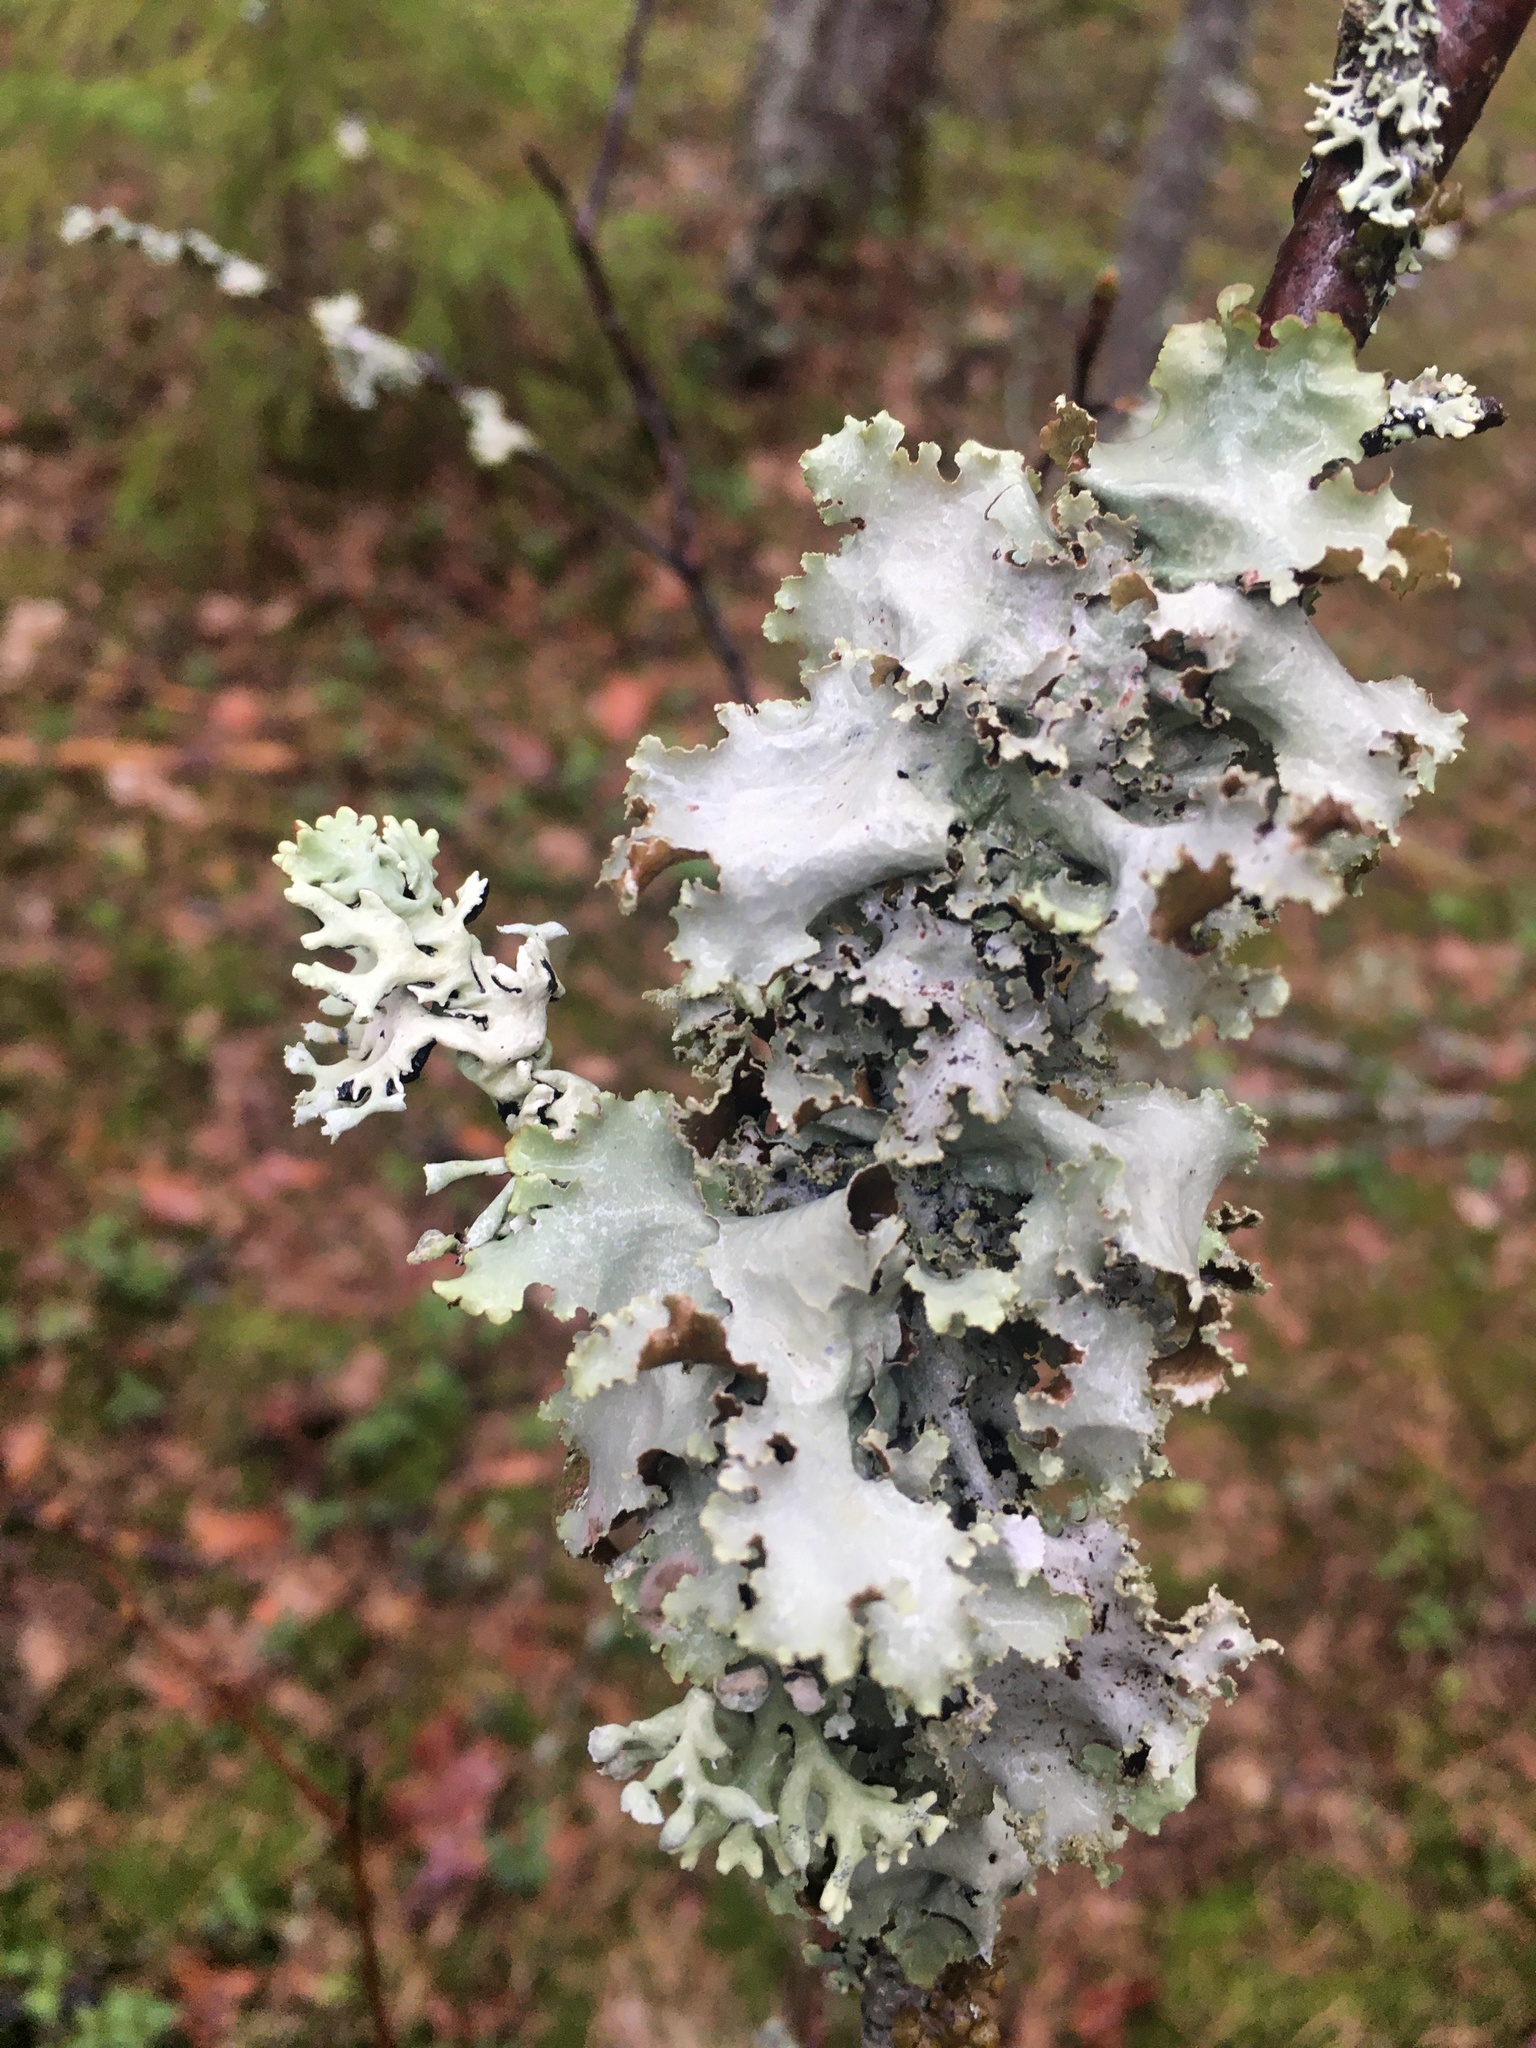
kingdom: Fungi
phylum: Ascomycota
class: Lecanoromycetes
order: Lecanorales
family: Parmeliaceae
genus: Platismatia
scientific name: Platismatia glauca
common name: Varied rag lichen
